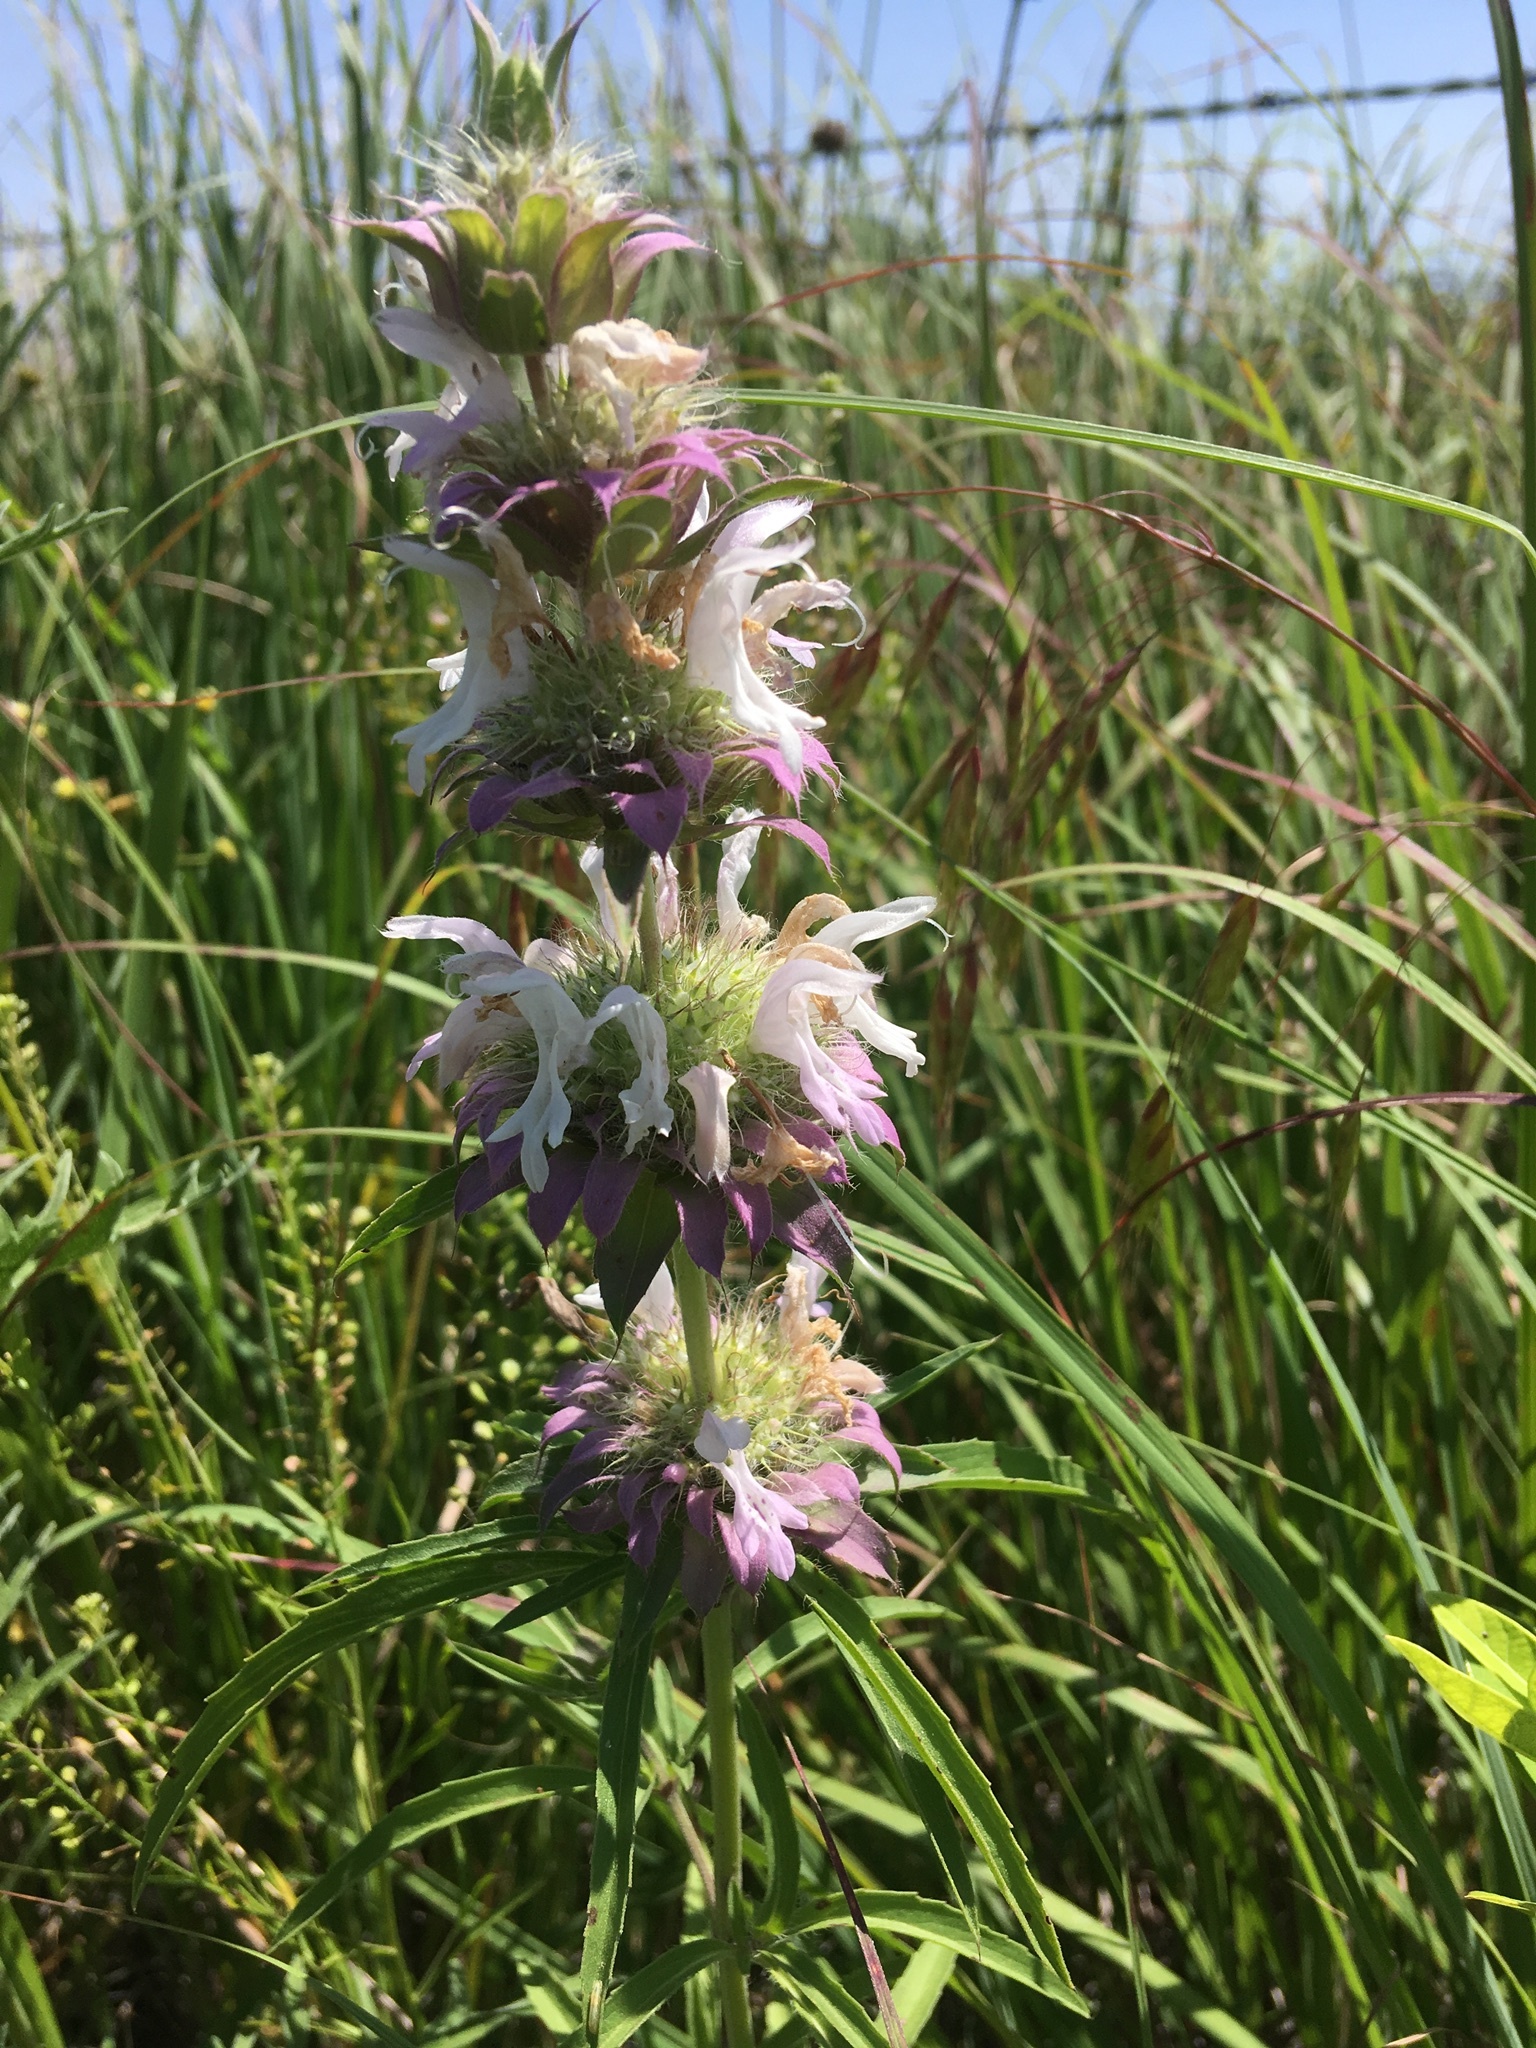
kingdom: Plantae
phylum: Tracheophyta
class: Magnoliopsida
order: Lamiales
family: Lamiaceae
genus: Monarda
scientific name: Monarda citriodora
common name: Lemon beebalm
